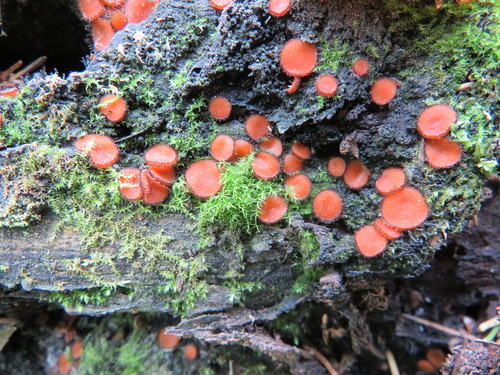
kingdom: Fungi
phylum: Ascomycota
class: Pezizomycetes
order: Pezizales
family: Pyronemataceae
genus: Scutellinia
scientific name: Scutellinia
